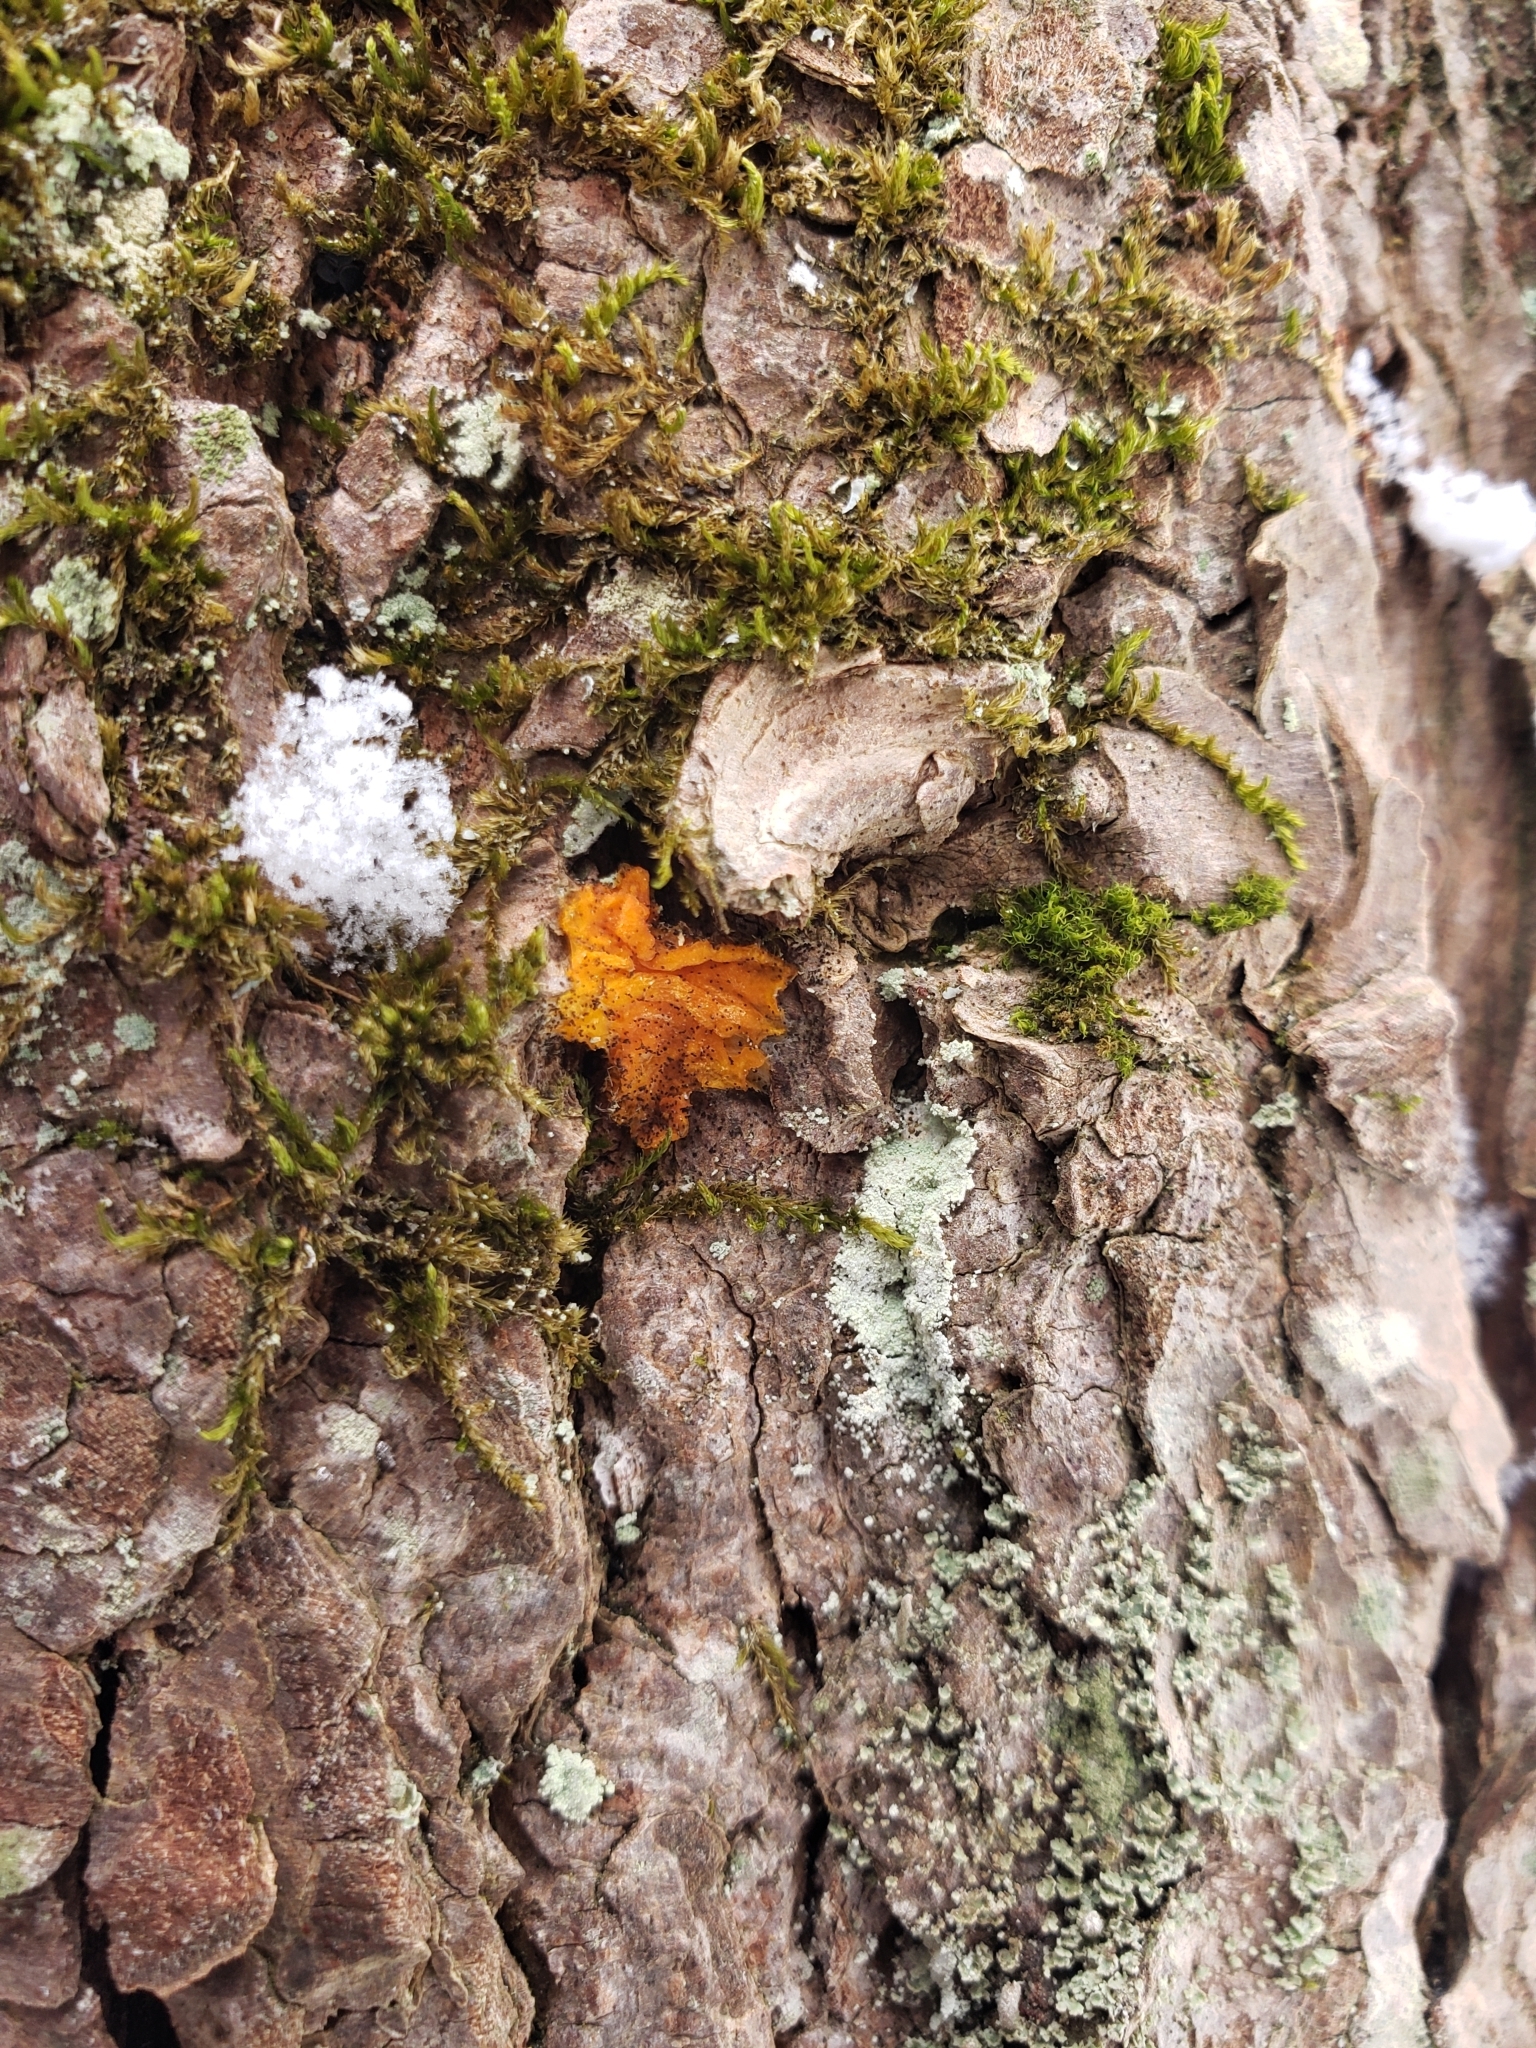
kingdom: Fungi
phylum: Basidiomycota
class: Dacrymycetes
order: Dacrymycetales
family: Dacrymycetaceae
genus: Dacrymyces
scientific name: Dacrymyces chrysospermus
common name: Orange jelly spot
